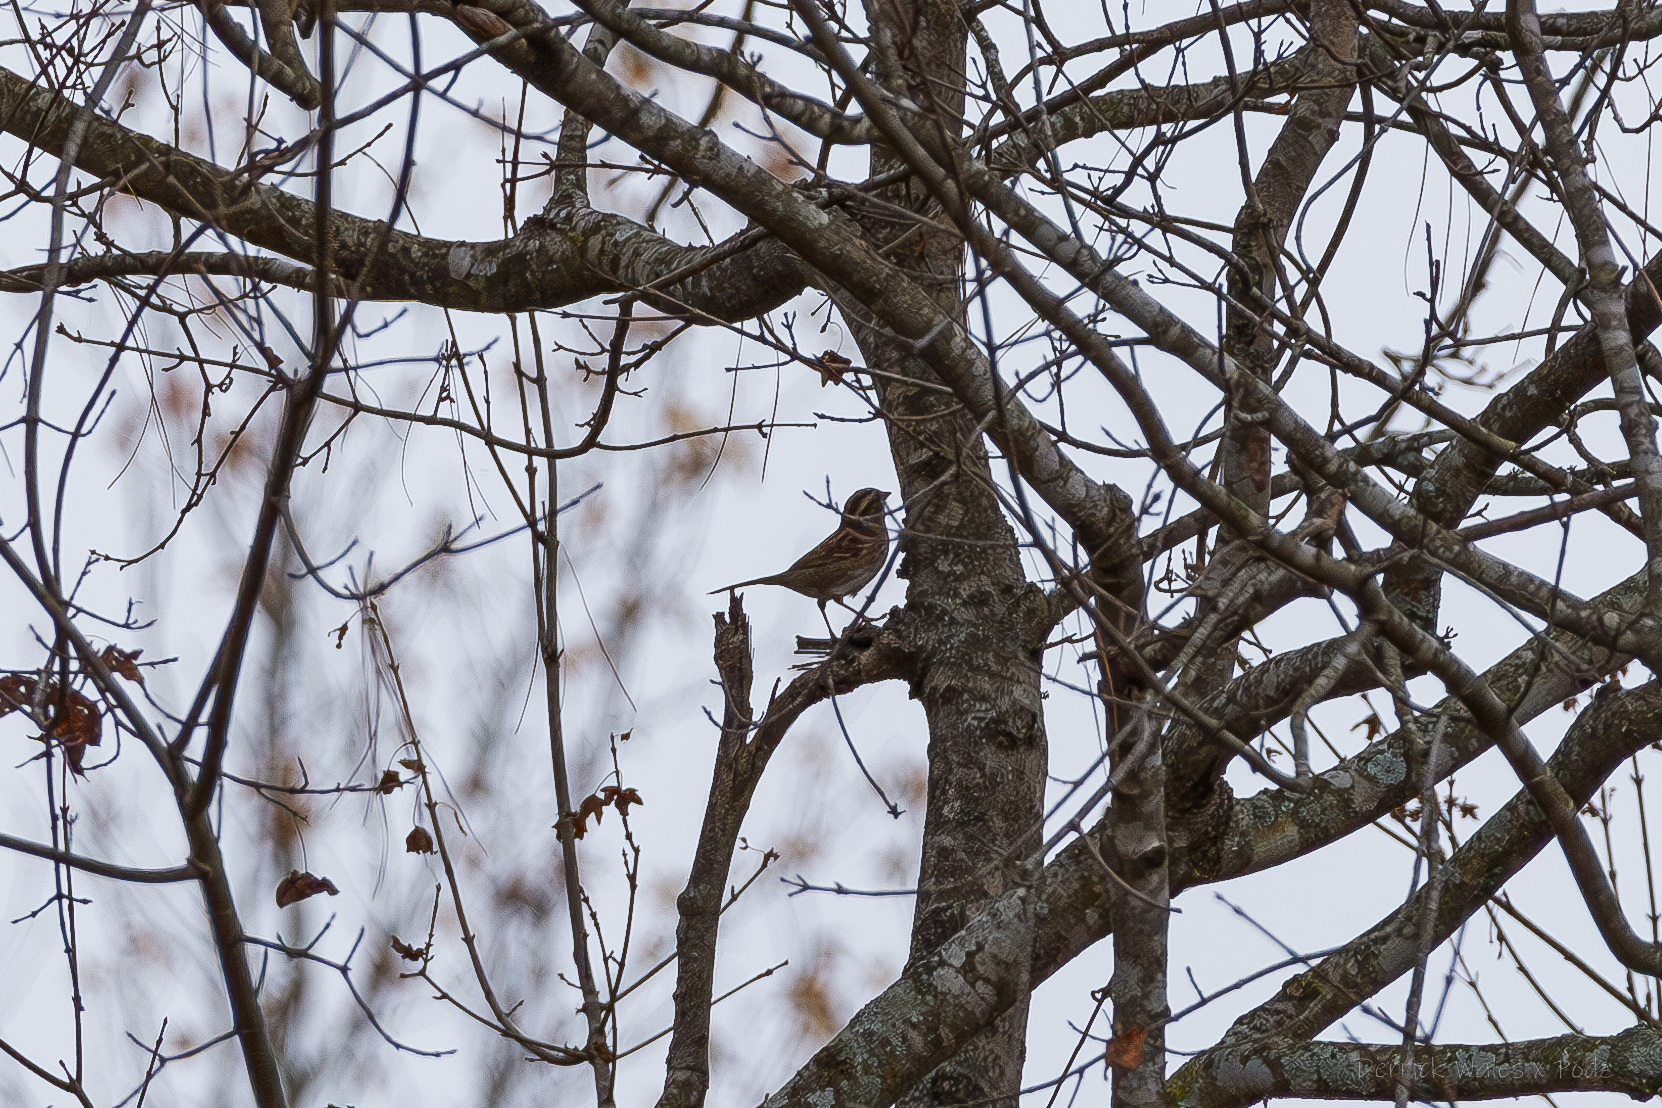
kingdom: Animalia
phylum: Chordata
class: Aves
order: Passeriformes
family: Passerellidae
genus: Zonotrichia
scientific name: Zonotrichia albicollis
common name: White-throated sparrow
